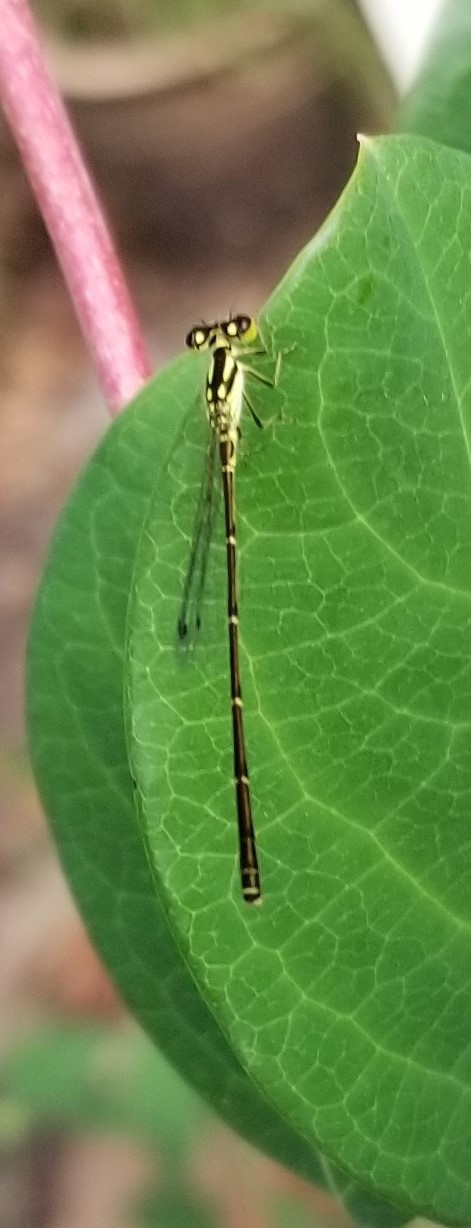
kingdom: Animalia
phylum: Arthropoda
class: Insecta
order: Odonata
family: Coenagrionidae
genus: Ischnura
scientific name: Ischnura posita
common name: Fragile forktail
